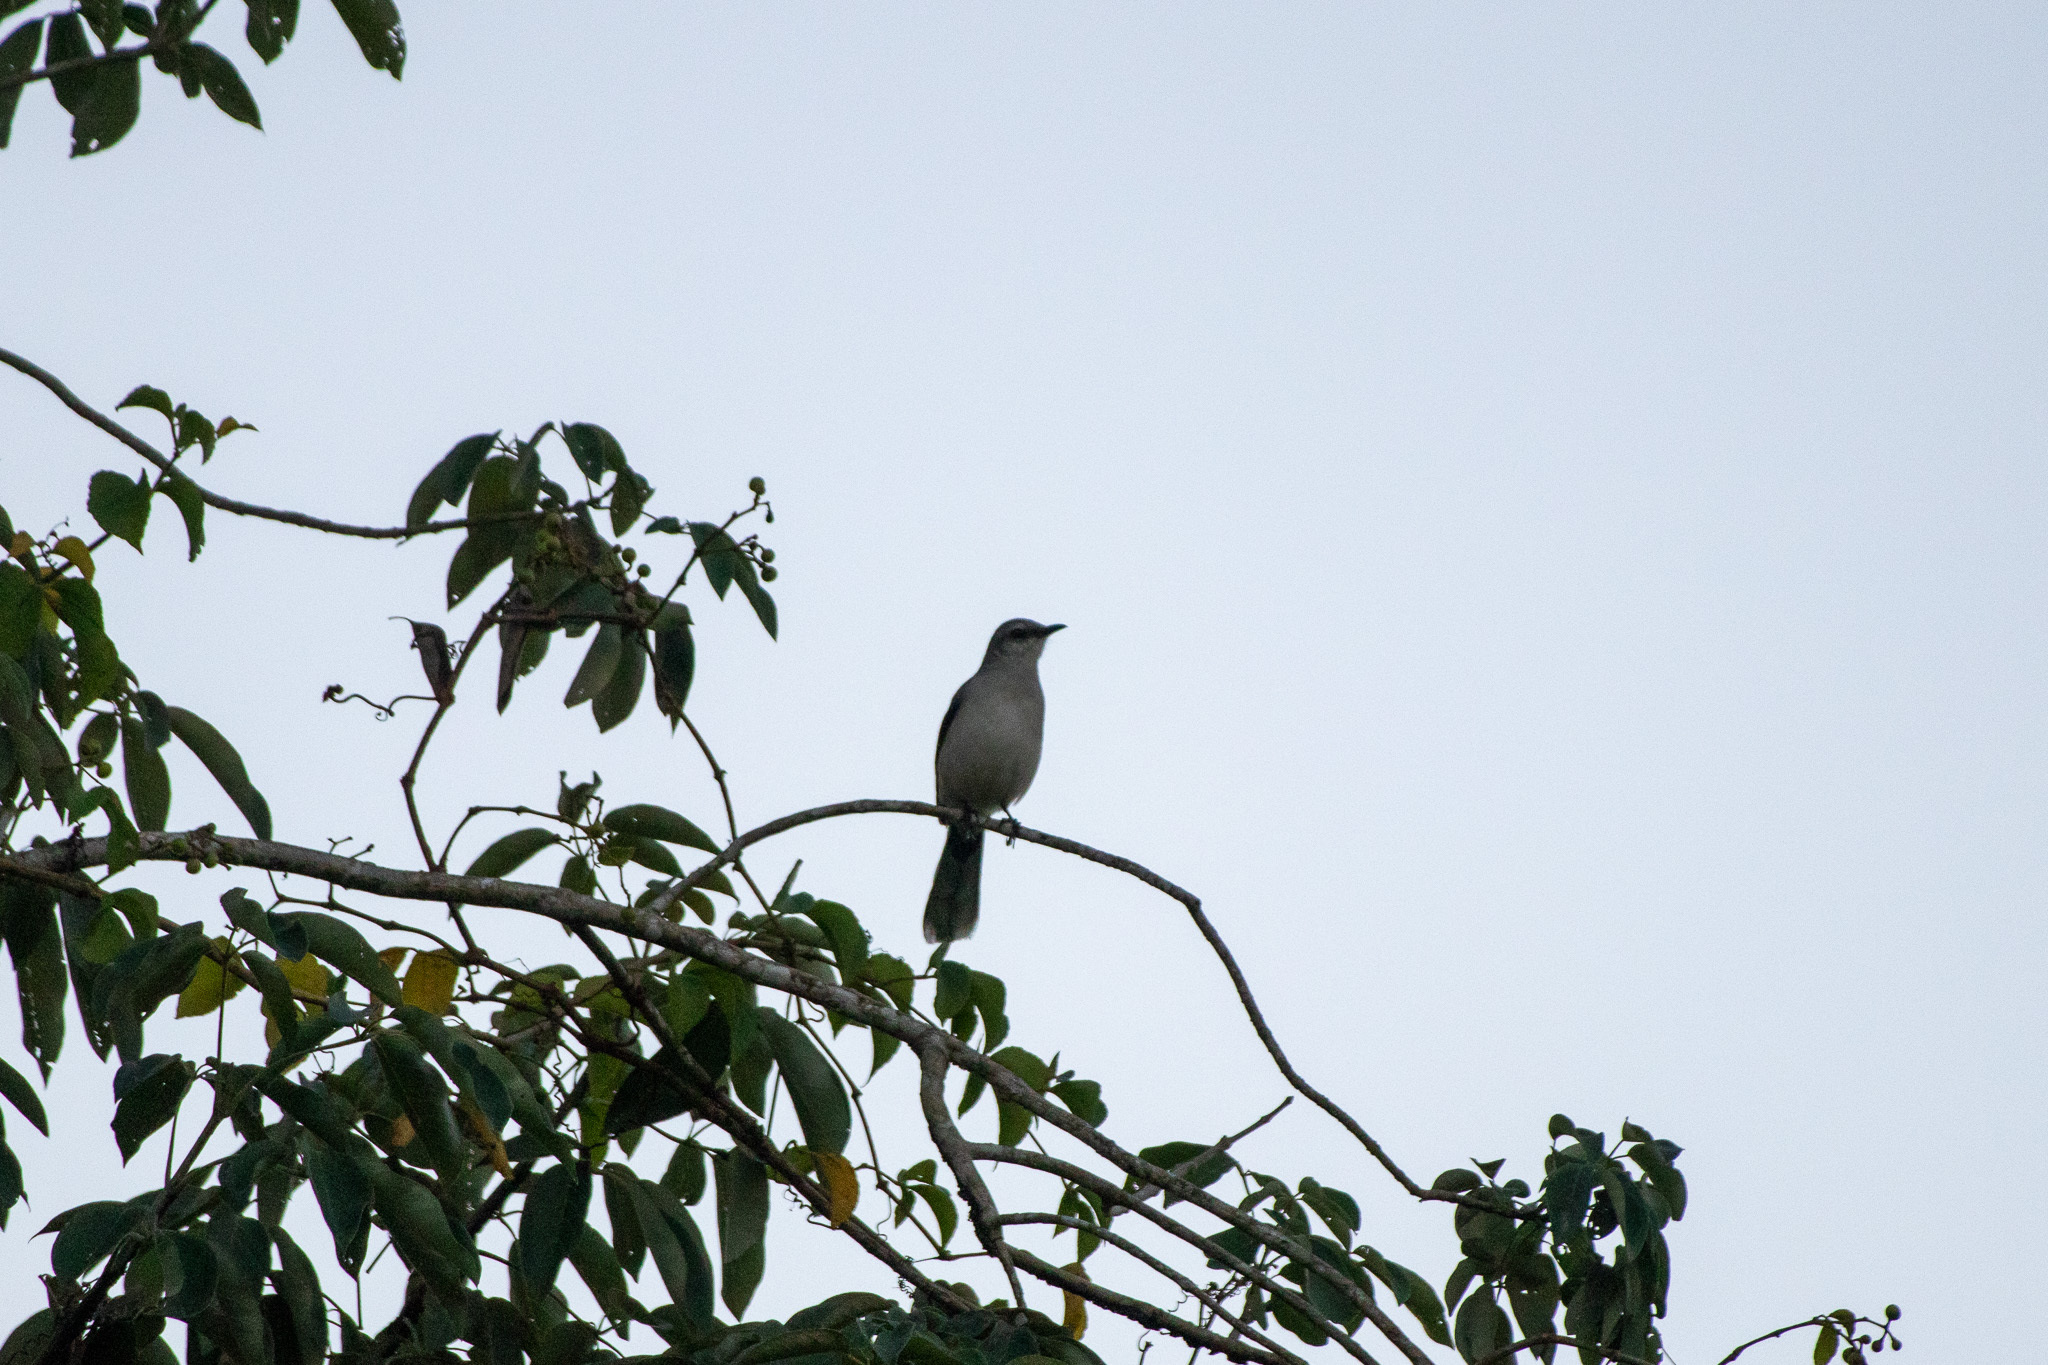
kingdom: Animalia
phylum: Chordata
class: Aves
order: Passeriformes
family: Mimidae
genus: Mimus
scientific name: Mimus gilvus
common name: Tropical mockingbird
